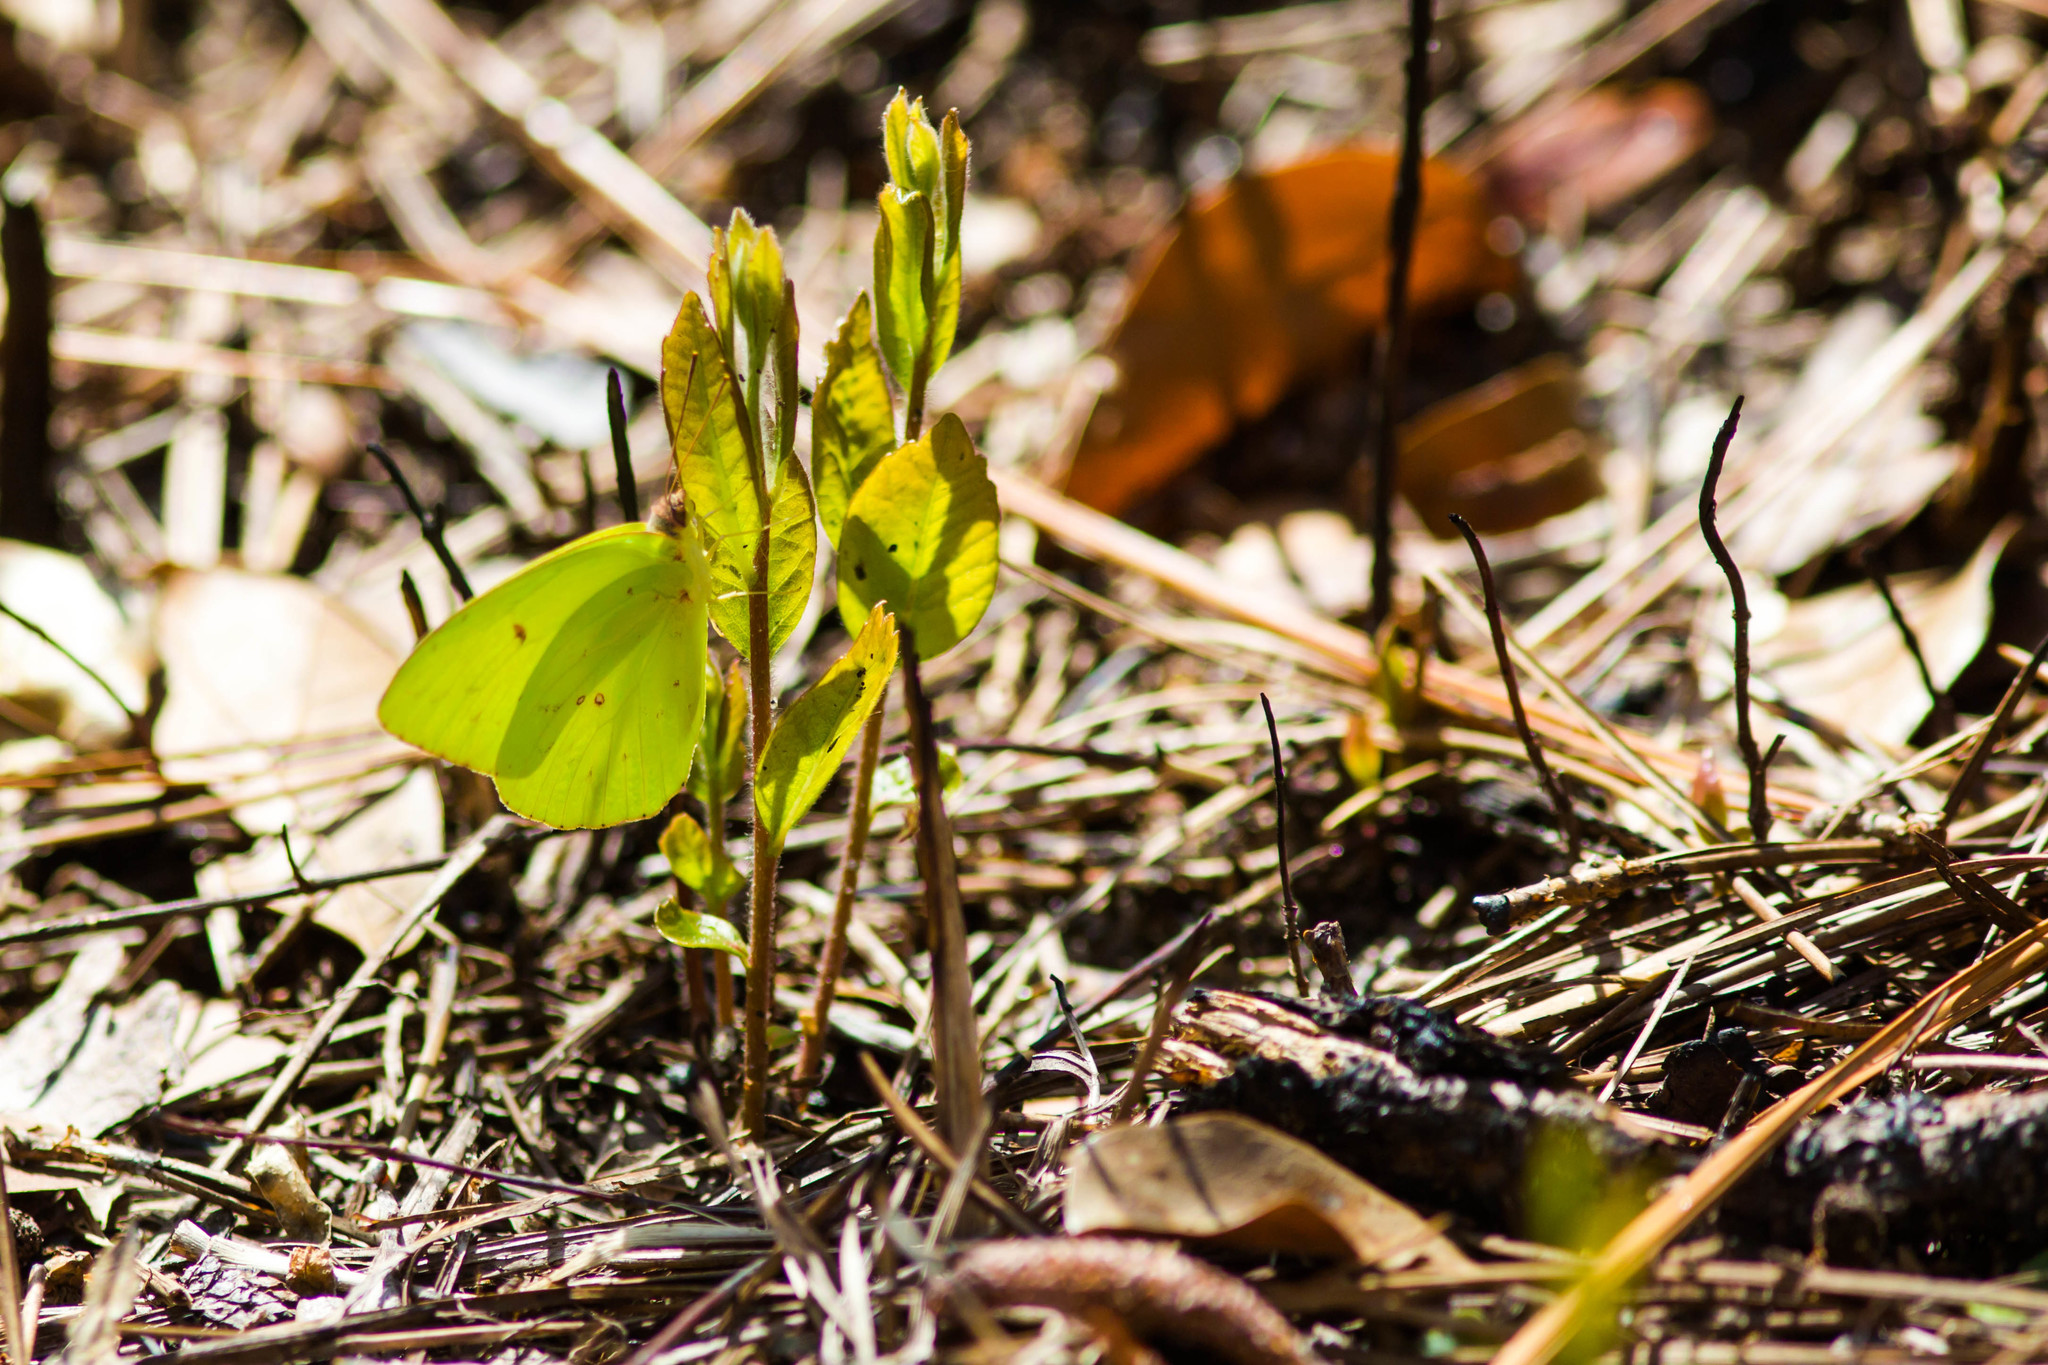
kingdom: Animalia
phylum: Arthropoda
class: Insecta
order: Lepidoptera
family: Pieridae
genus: Phoebis
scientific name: Phoebis sennae
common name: Cloudless sulphur
